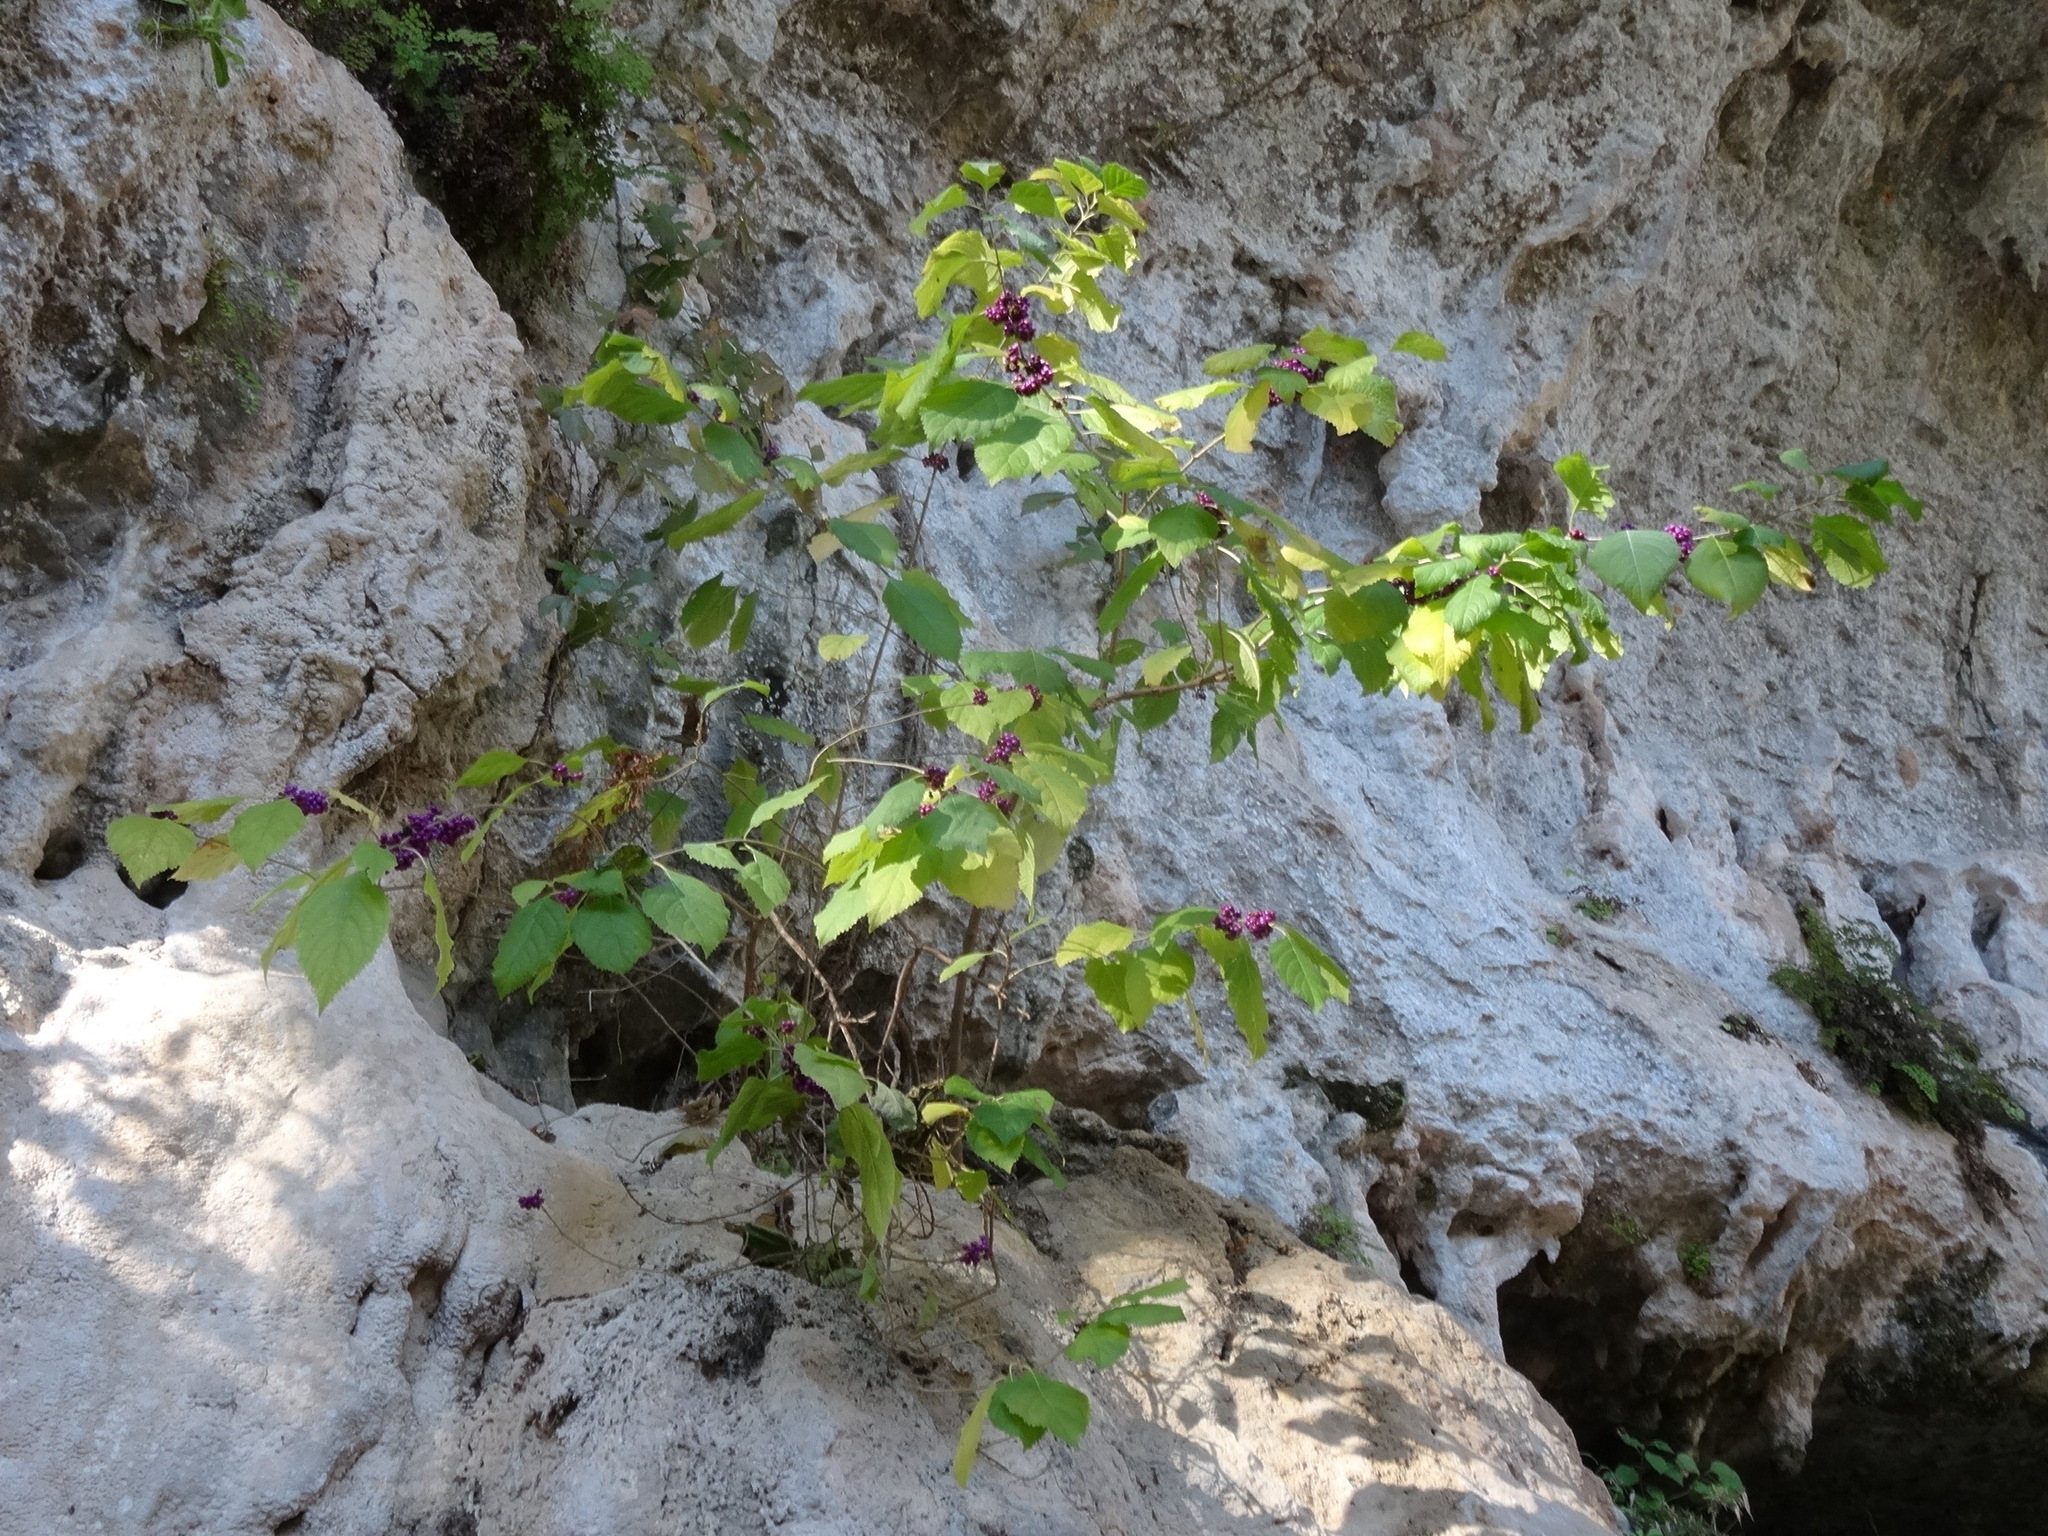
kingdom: Plantae
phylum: Tracheophyta
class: Magnoliopsida
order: Lamiales
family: Lamiaceae
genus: Callicarpa
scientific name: Callicarpa americana
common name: American beautyberry
